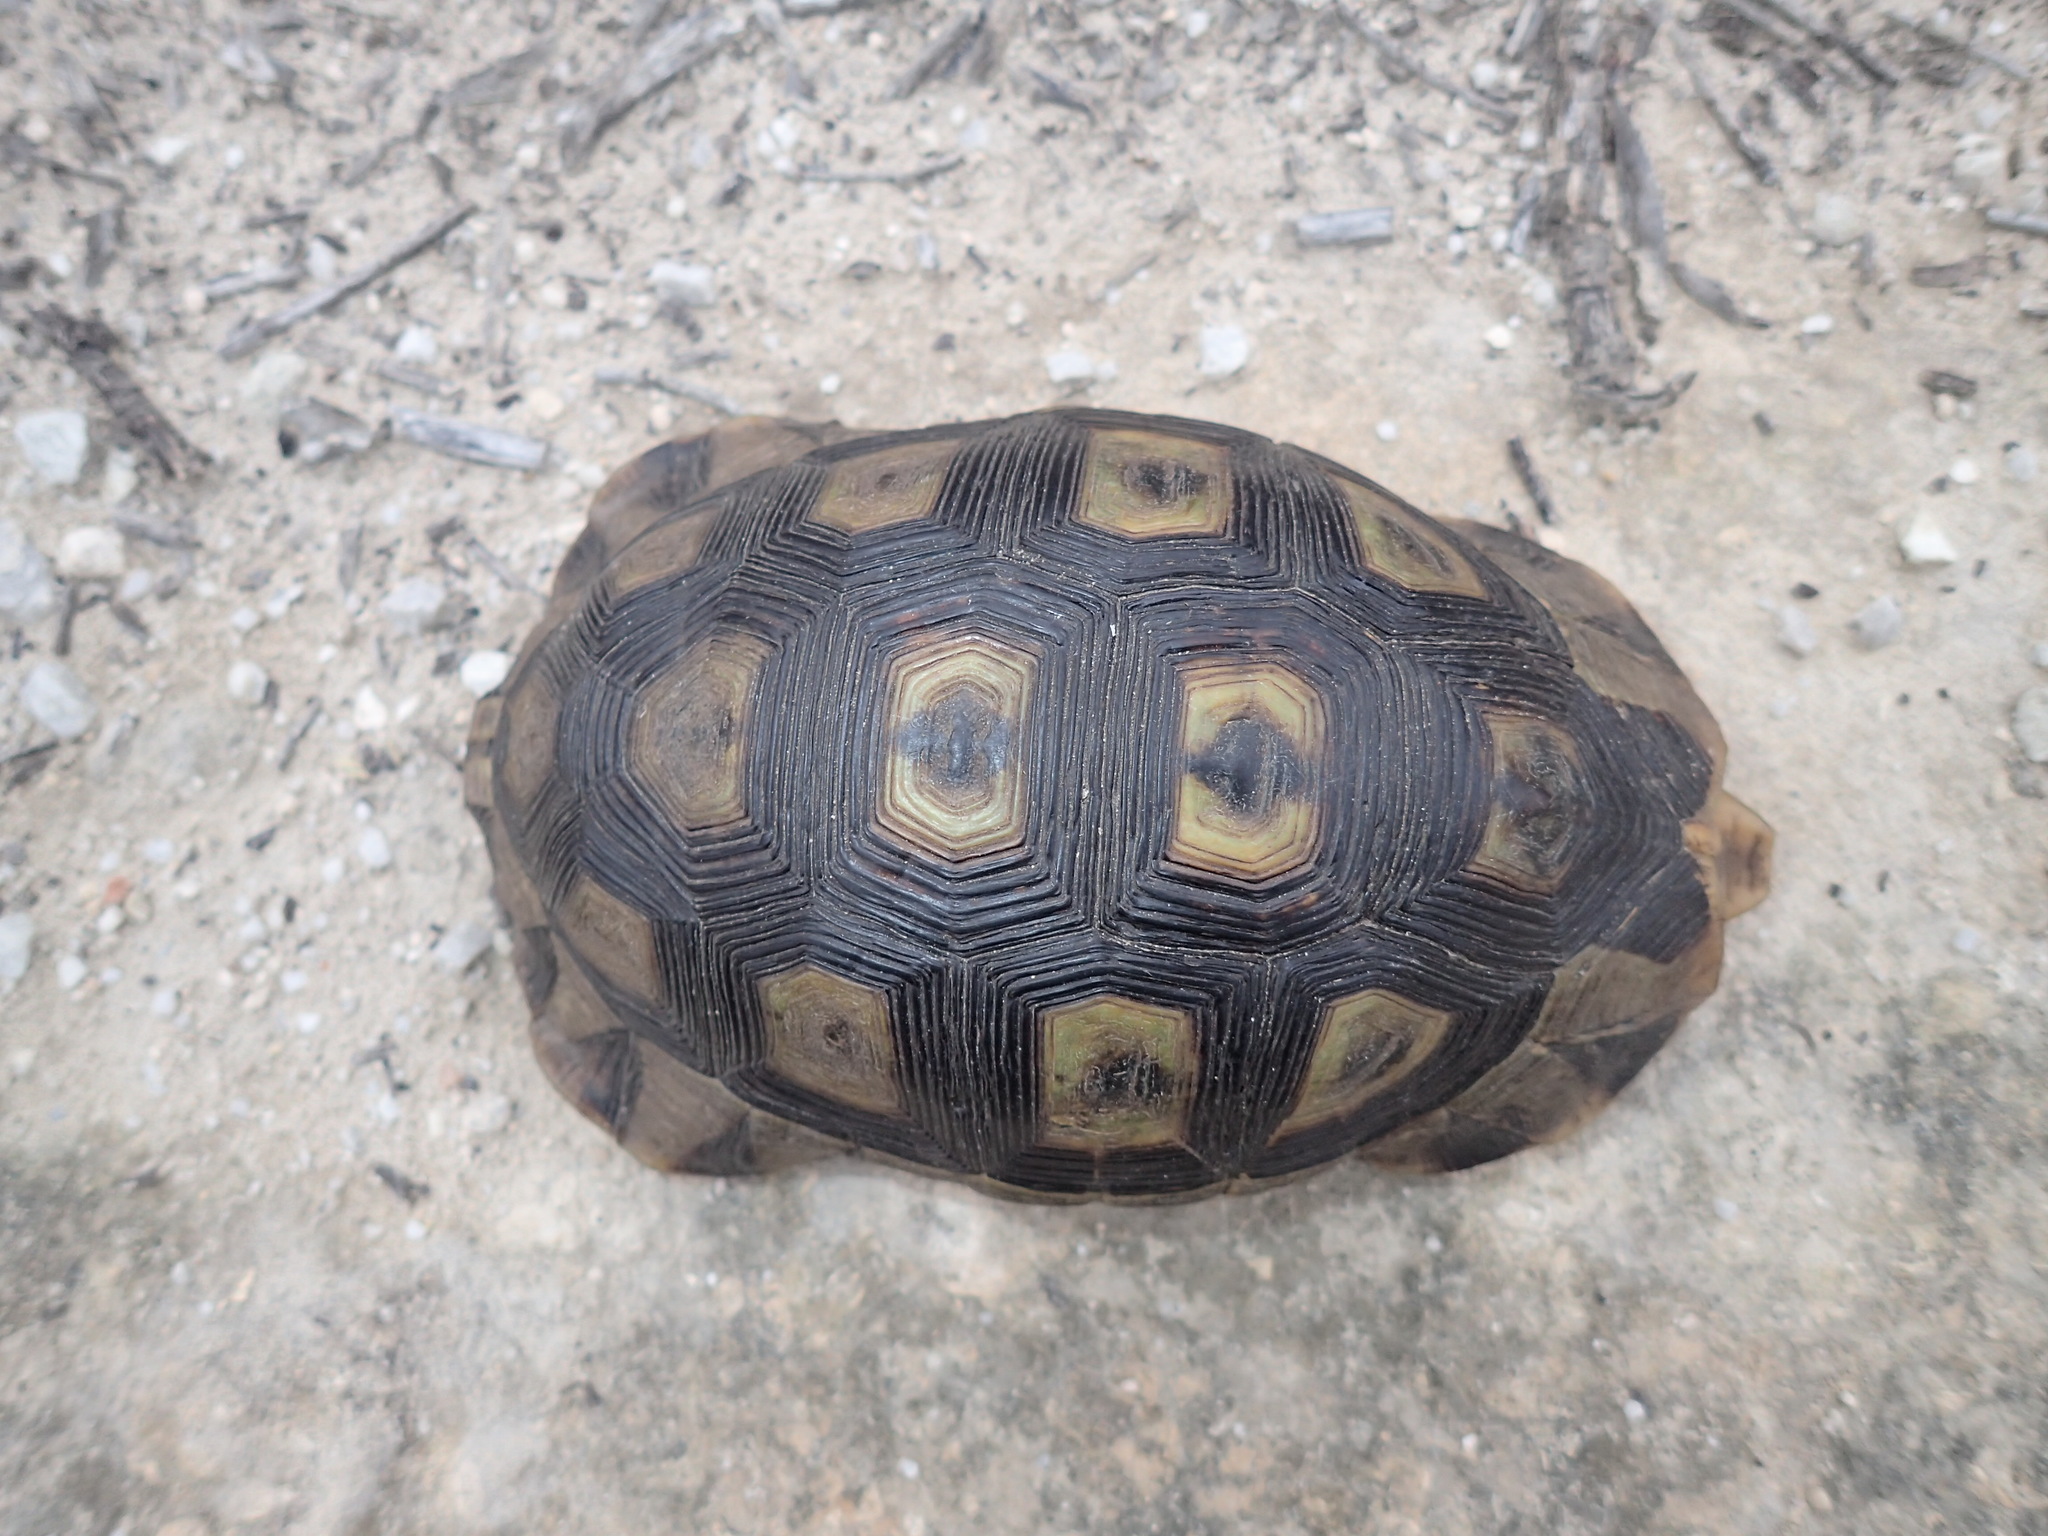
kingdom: Animalia
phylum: Chordata
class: Testudines
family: Testudinidae
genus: Chersina
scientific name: Chersina angulata
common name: South african bowsprit tortoise
